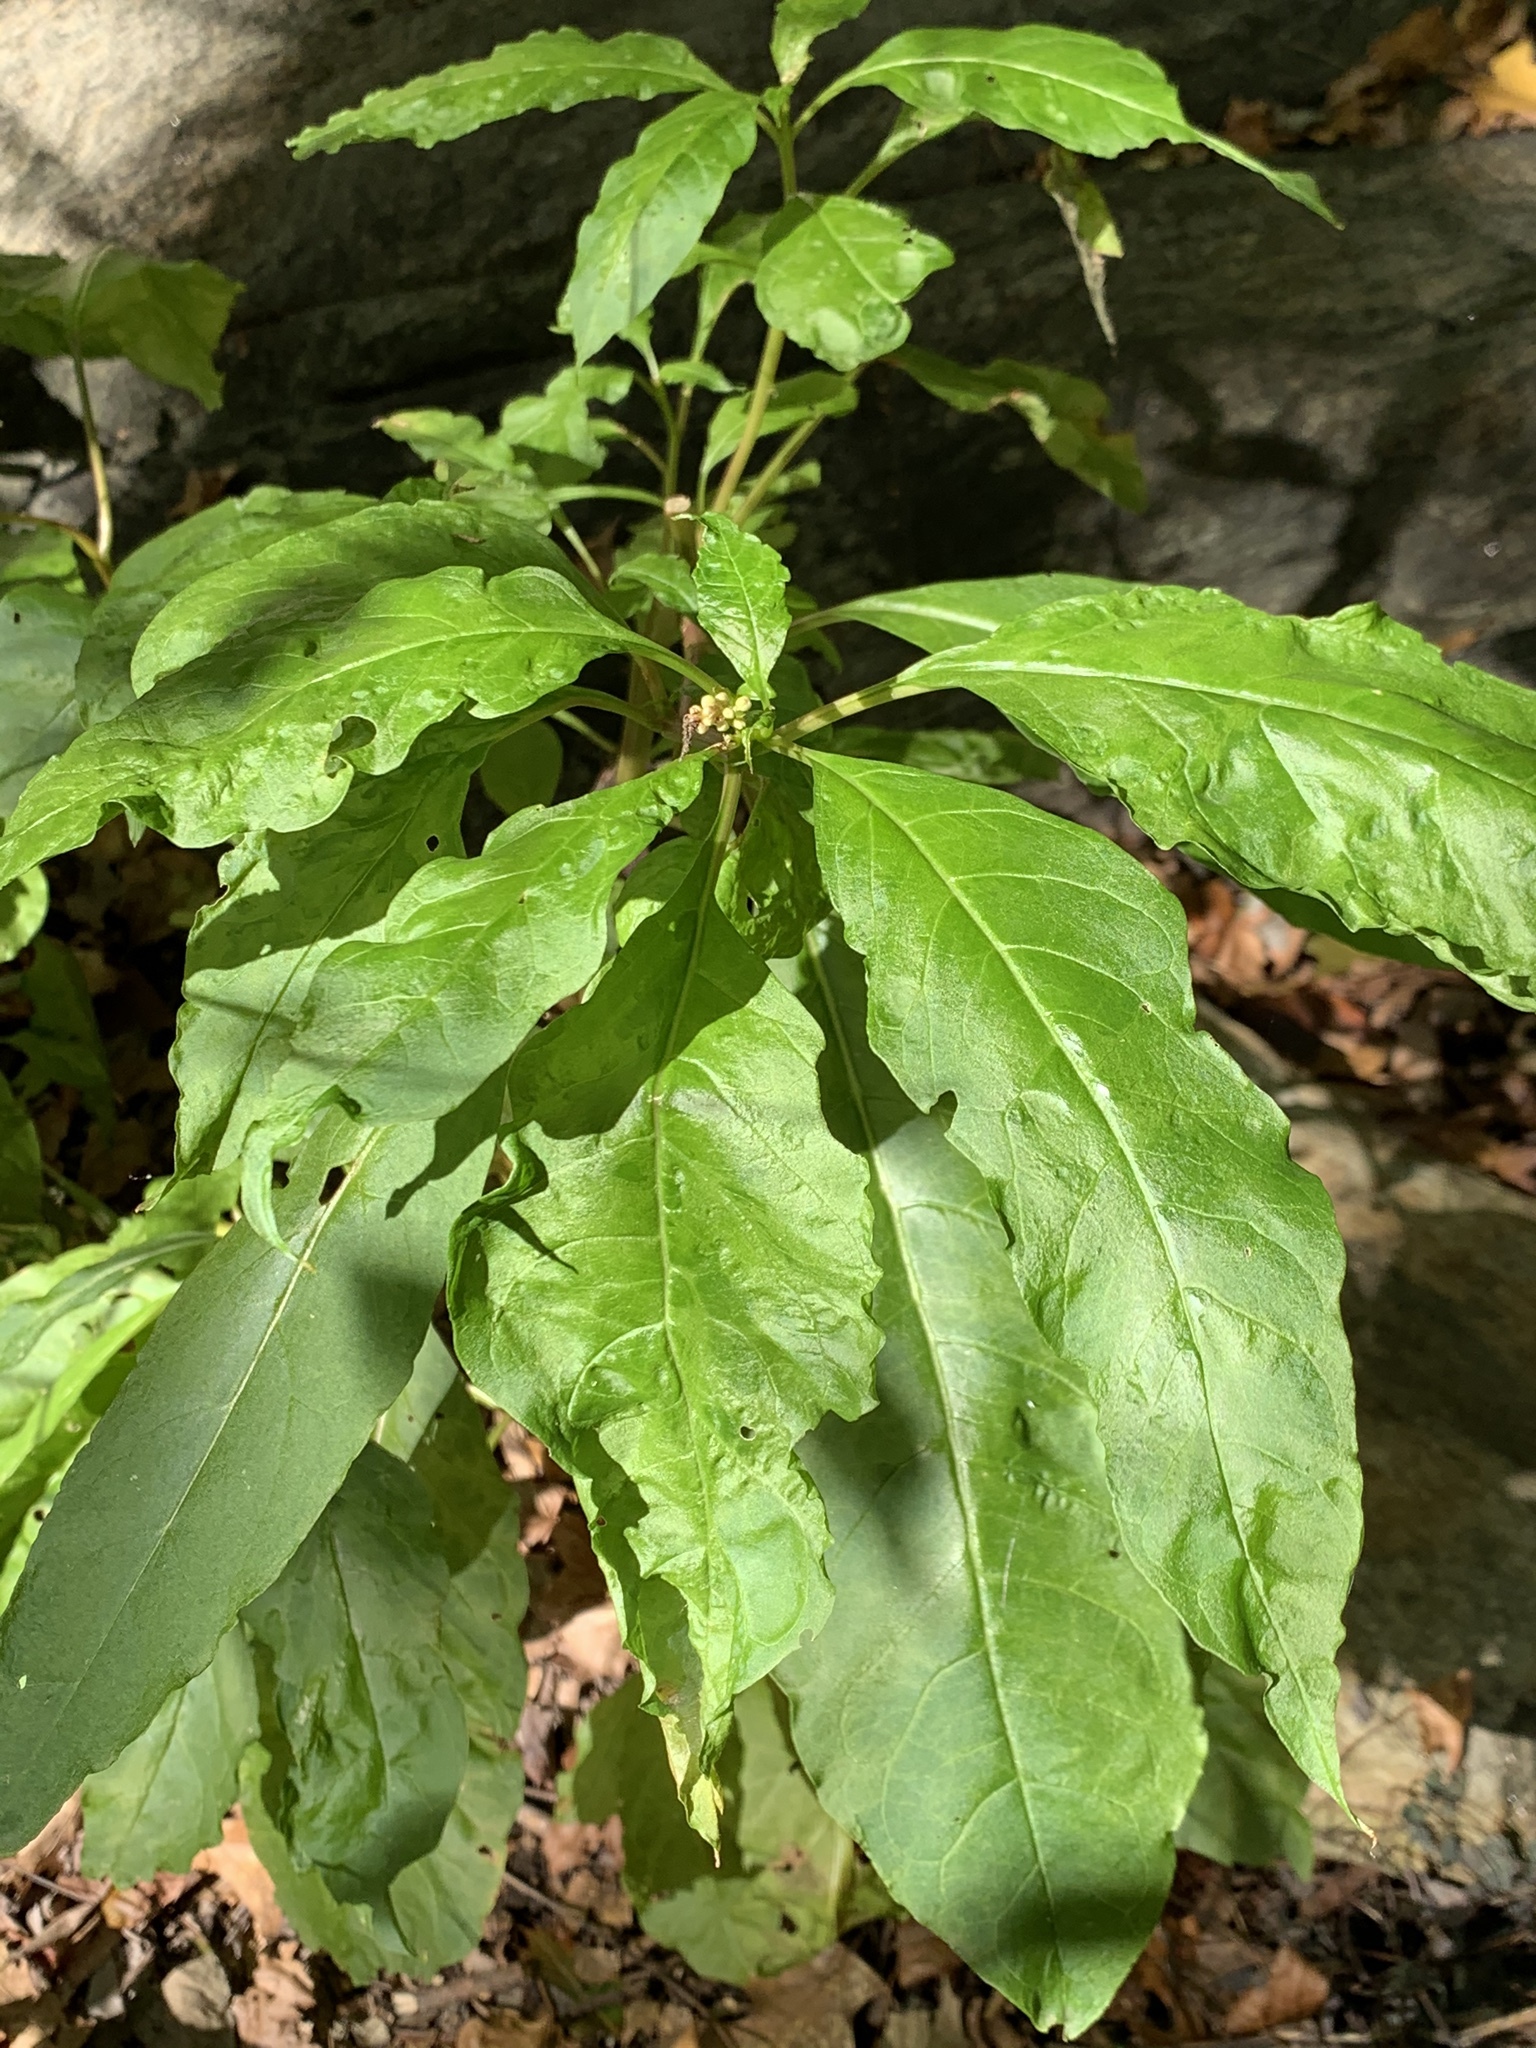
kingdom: Plantae
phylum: Tracheophyta
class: Magnoliopsida
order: Caryophyllales
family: Phytolaccaceae
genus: Phytolacca
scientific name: Phytolacca americana
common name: American pokeweed
